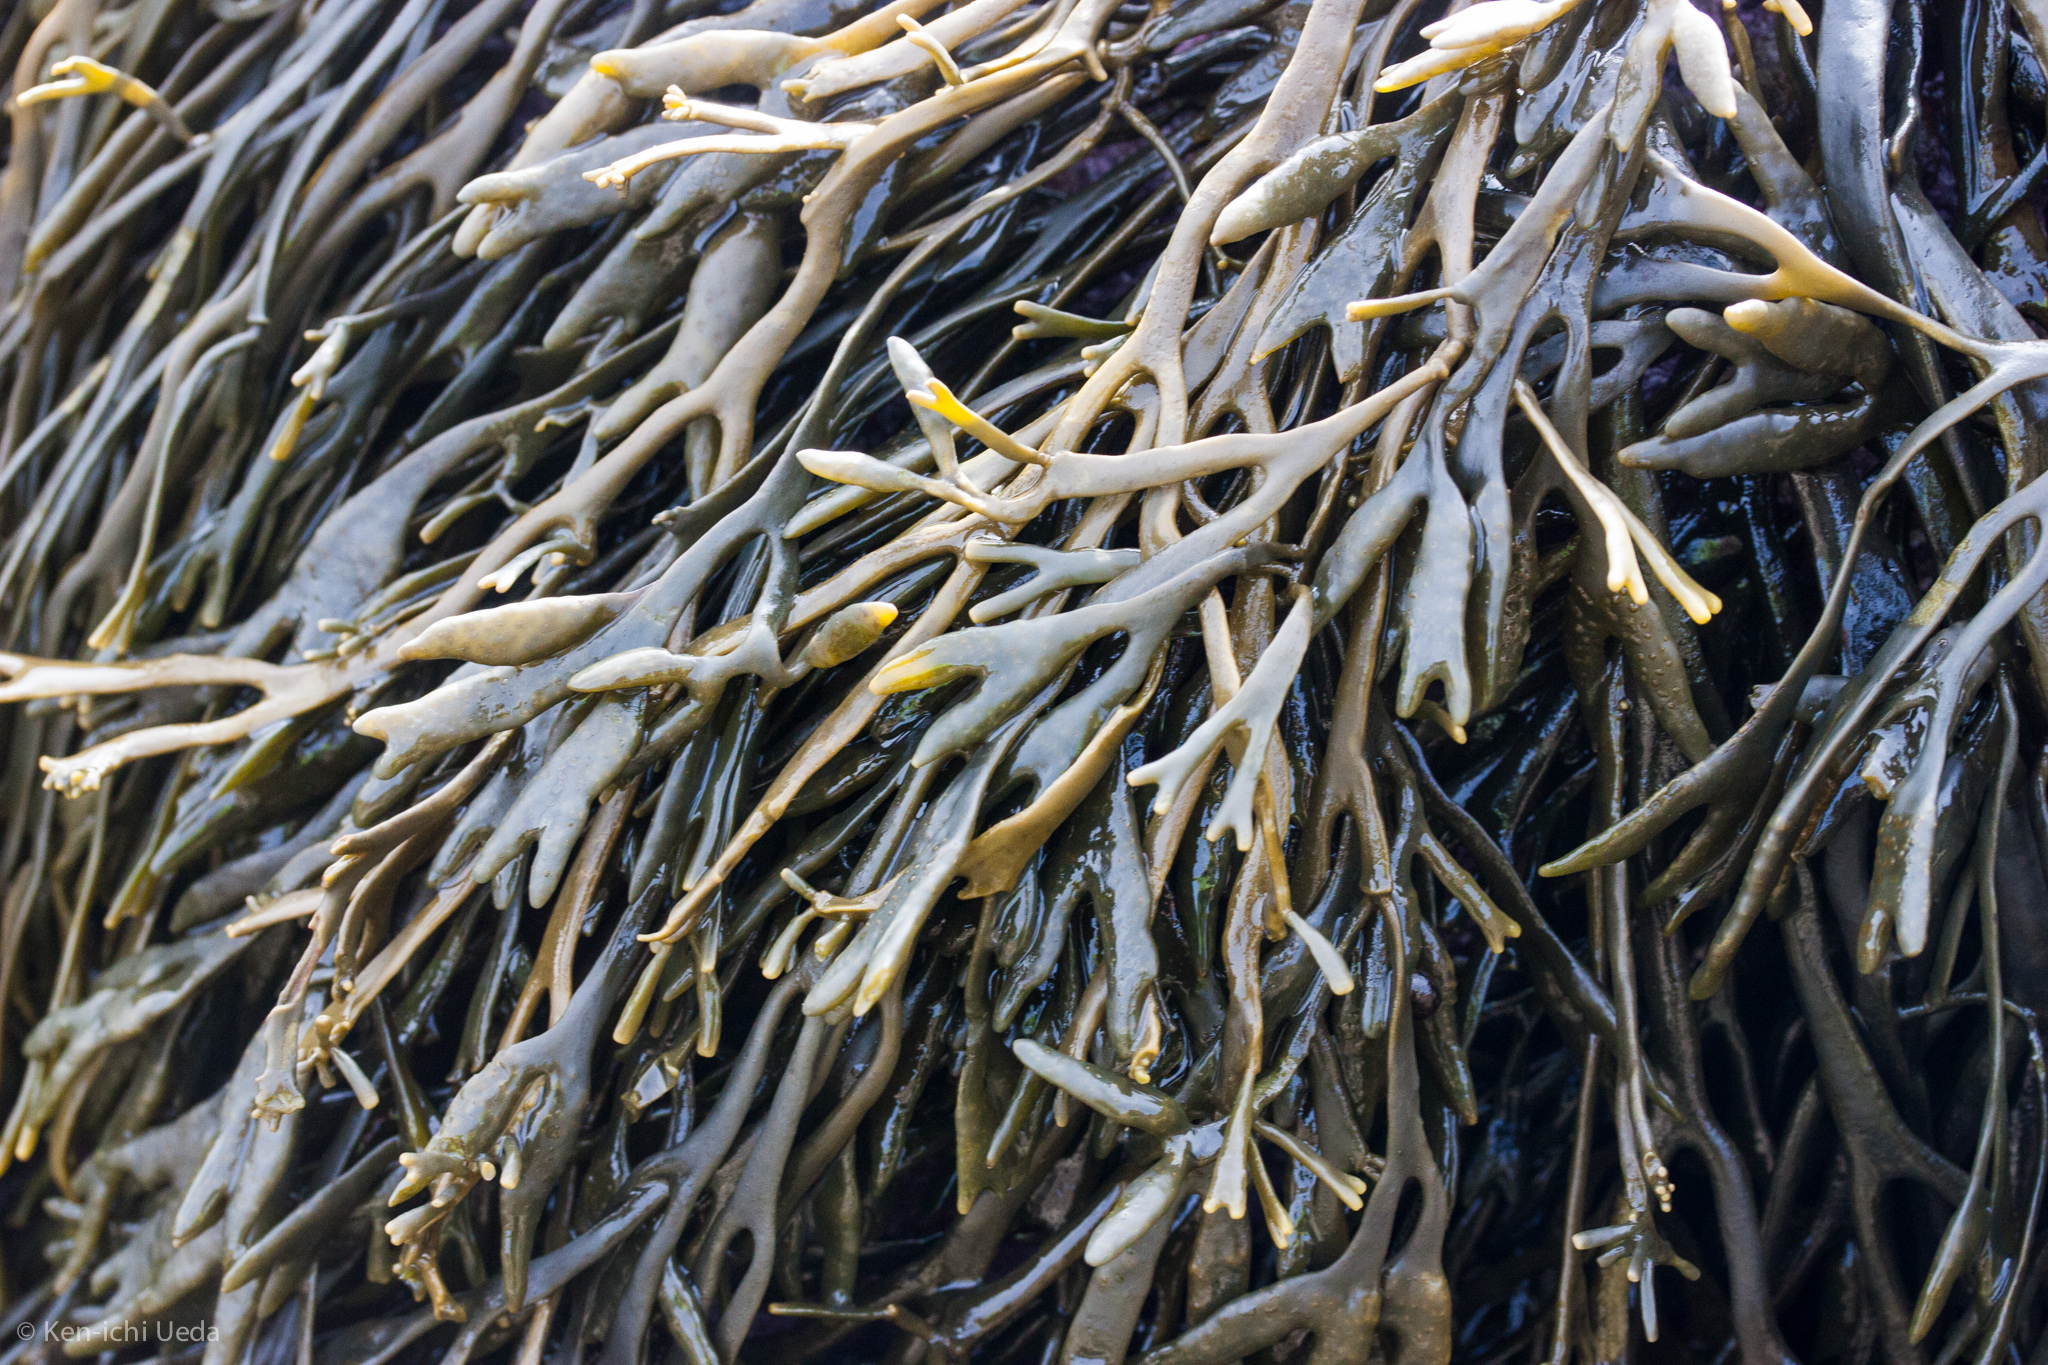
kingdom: Chromista
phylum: Ochrophyta
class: Phaeophyceae
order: Fucales
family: Fucaceae
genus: Silvetia
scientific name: Silvetia
